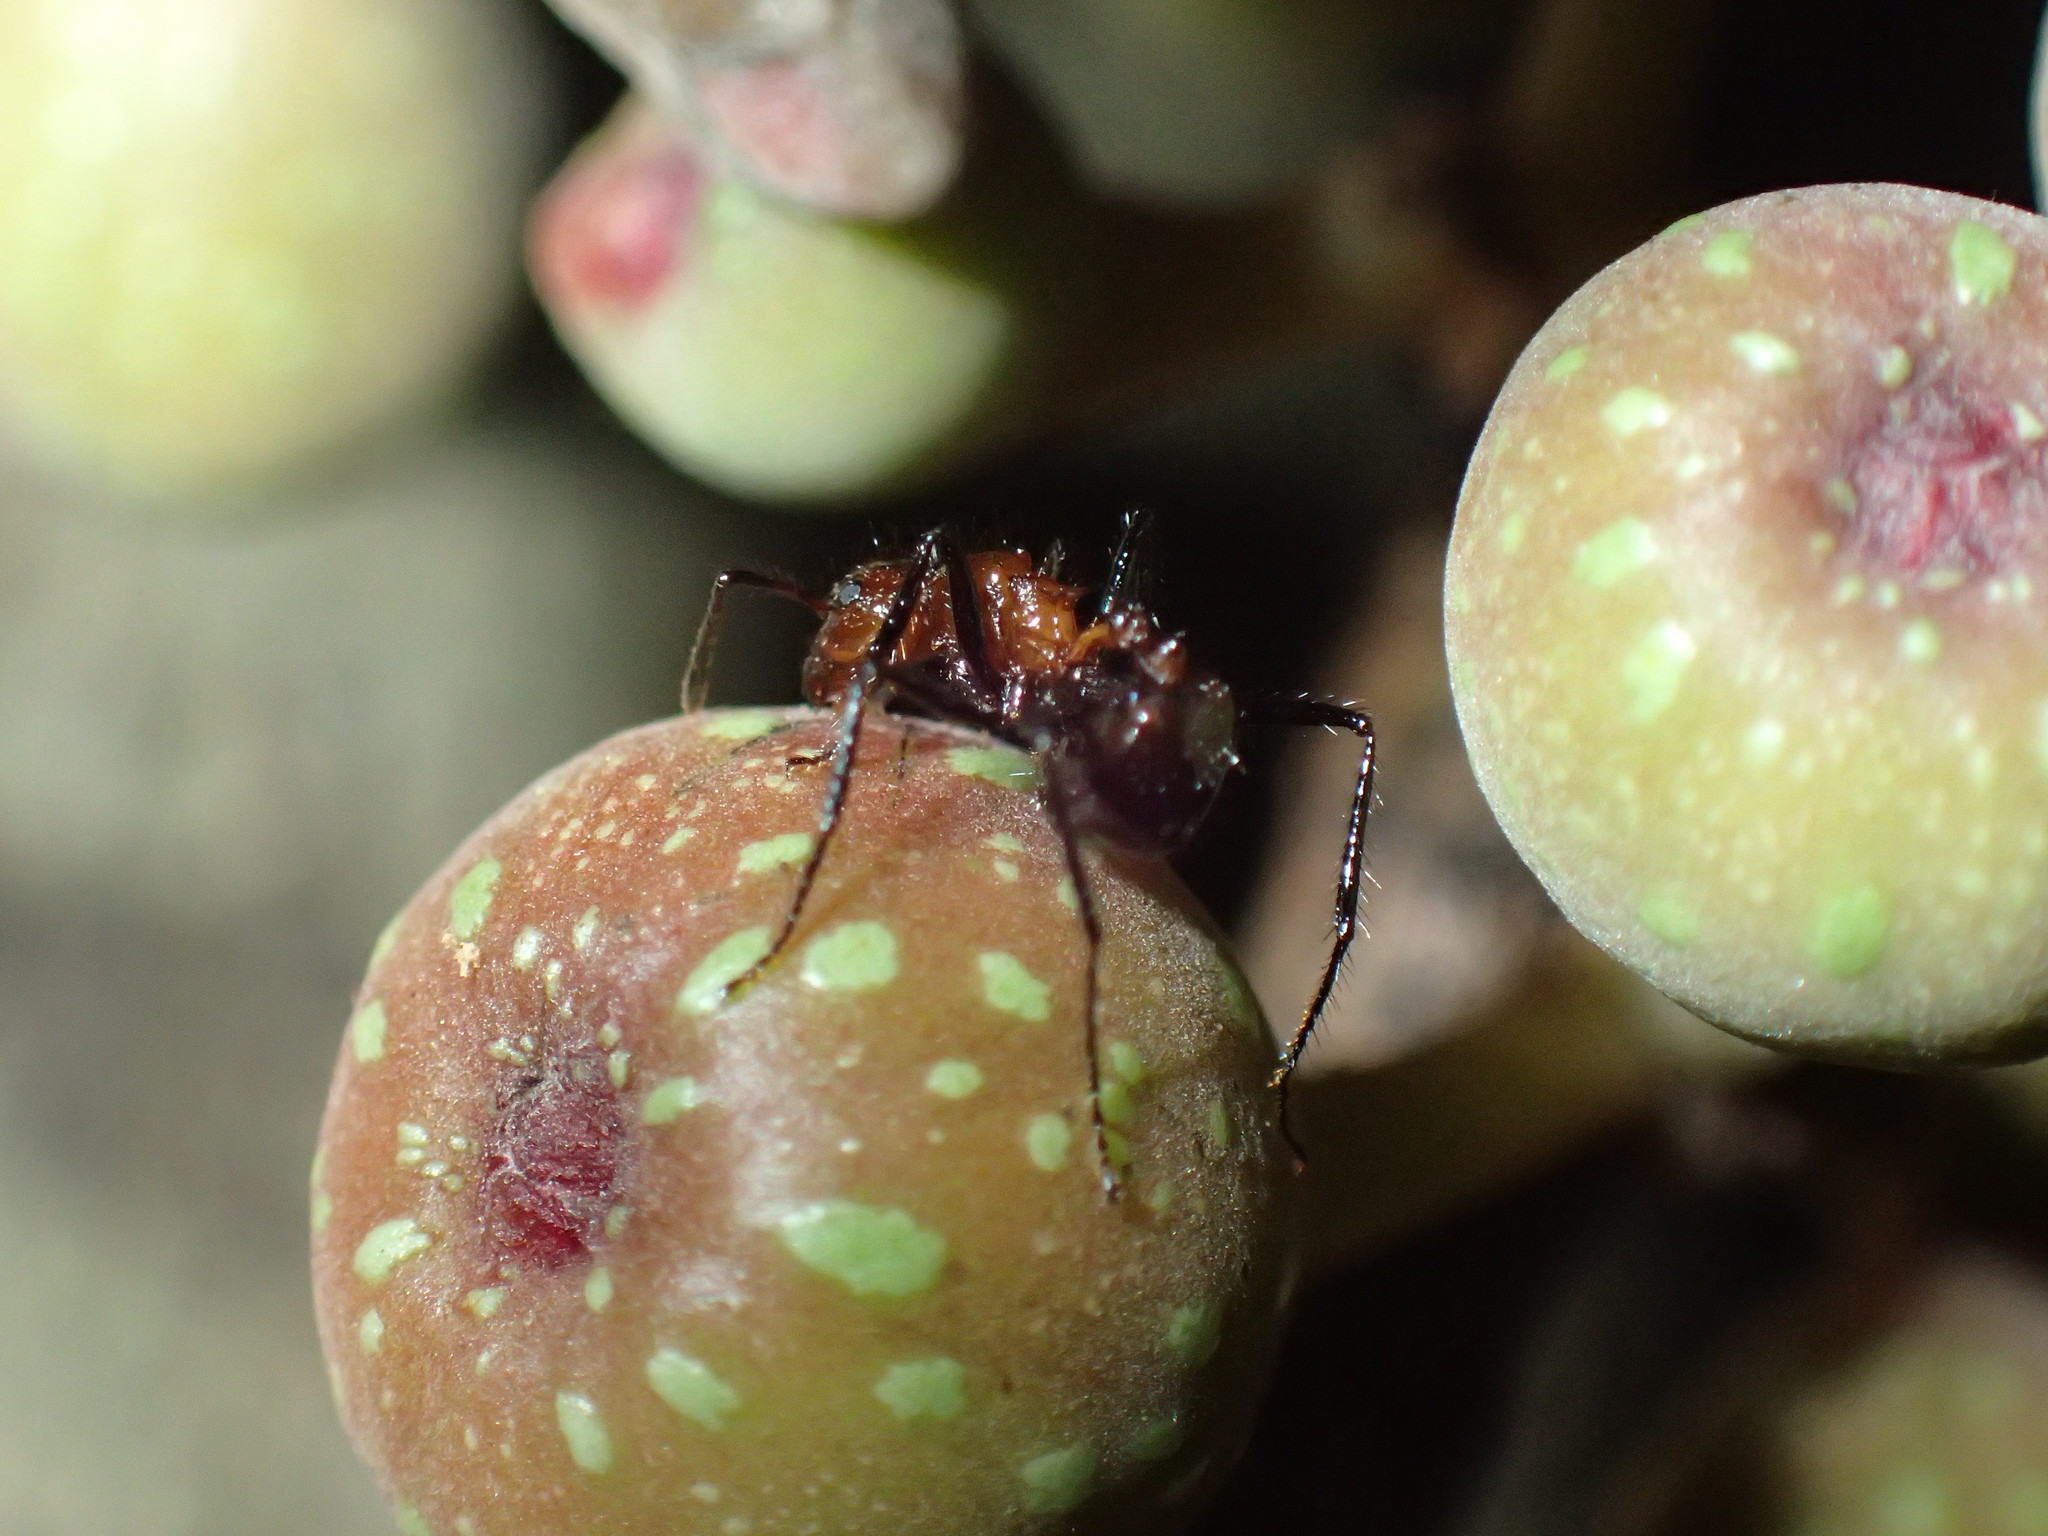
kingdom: Animalia
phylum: Arthropoda
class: Insecta
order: Hymenoptera
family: Formicidae
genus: Myrmicaria
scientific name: Myrmicaria natalensis
